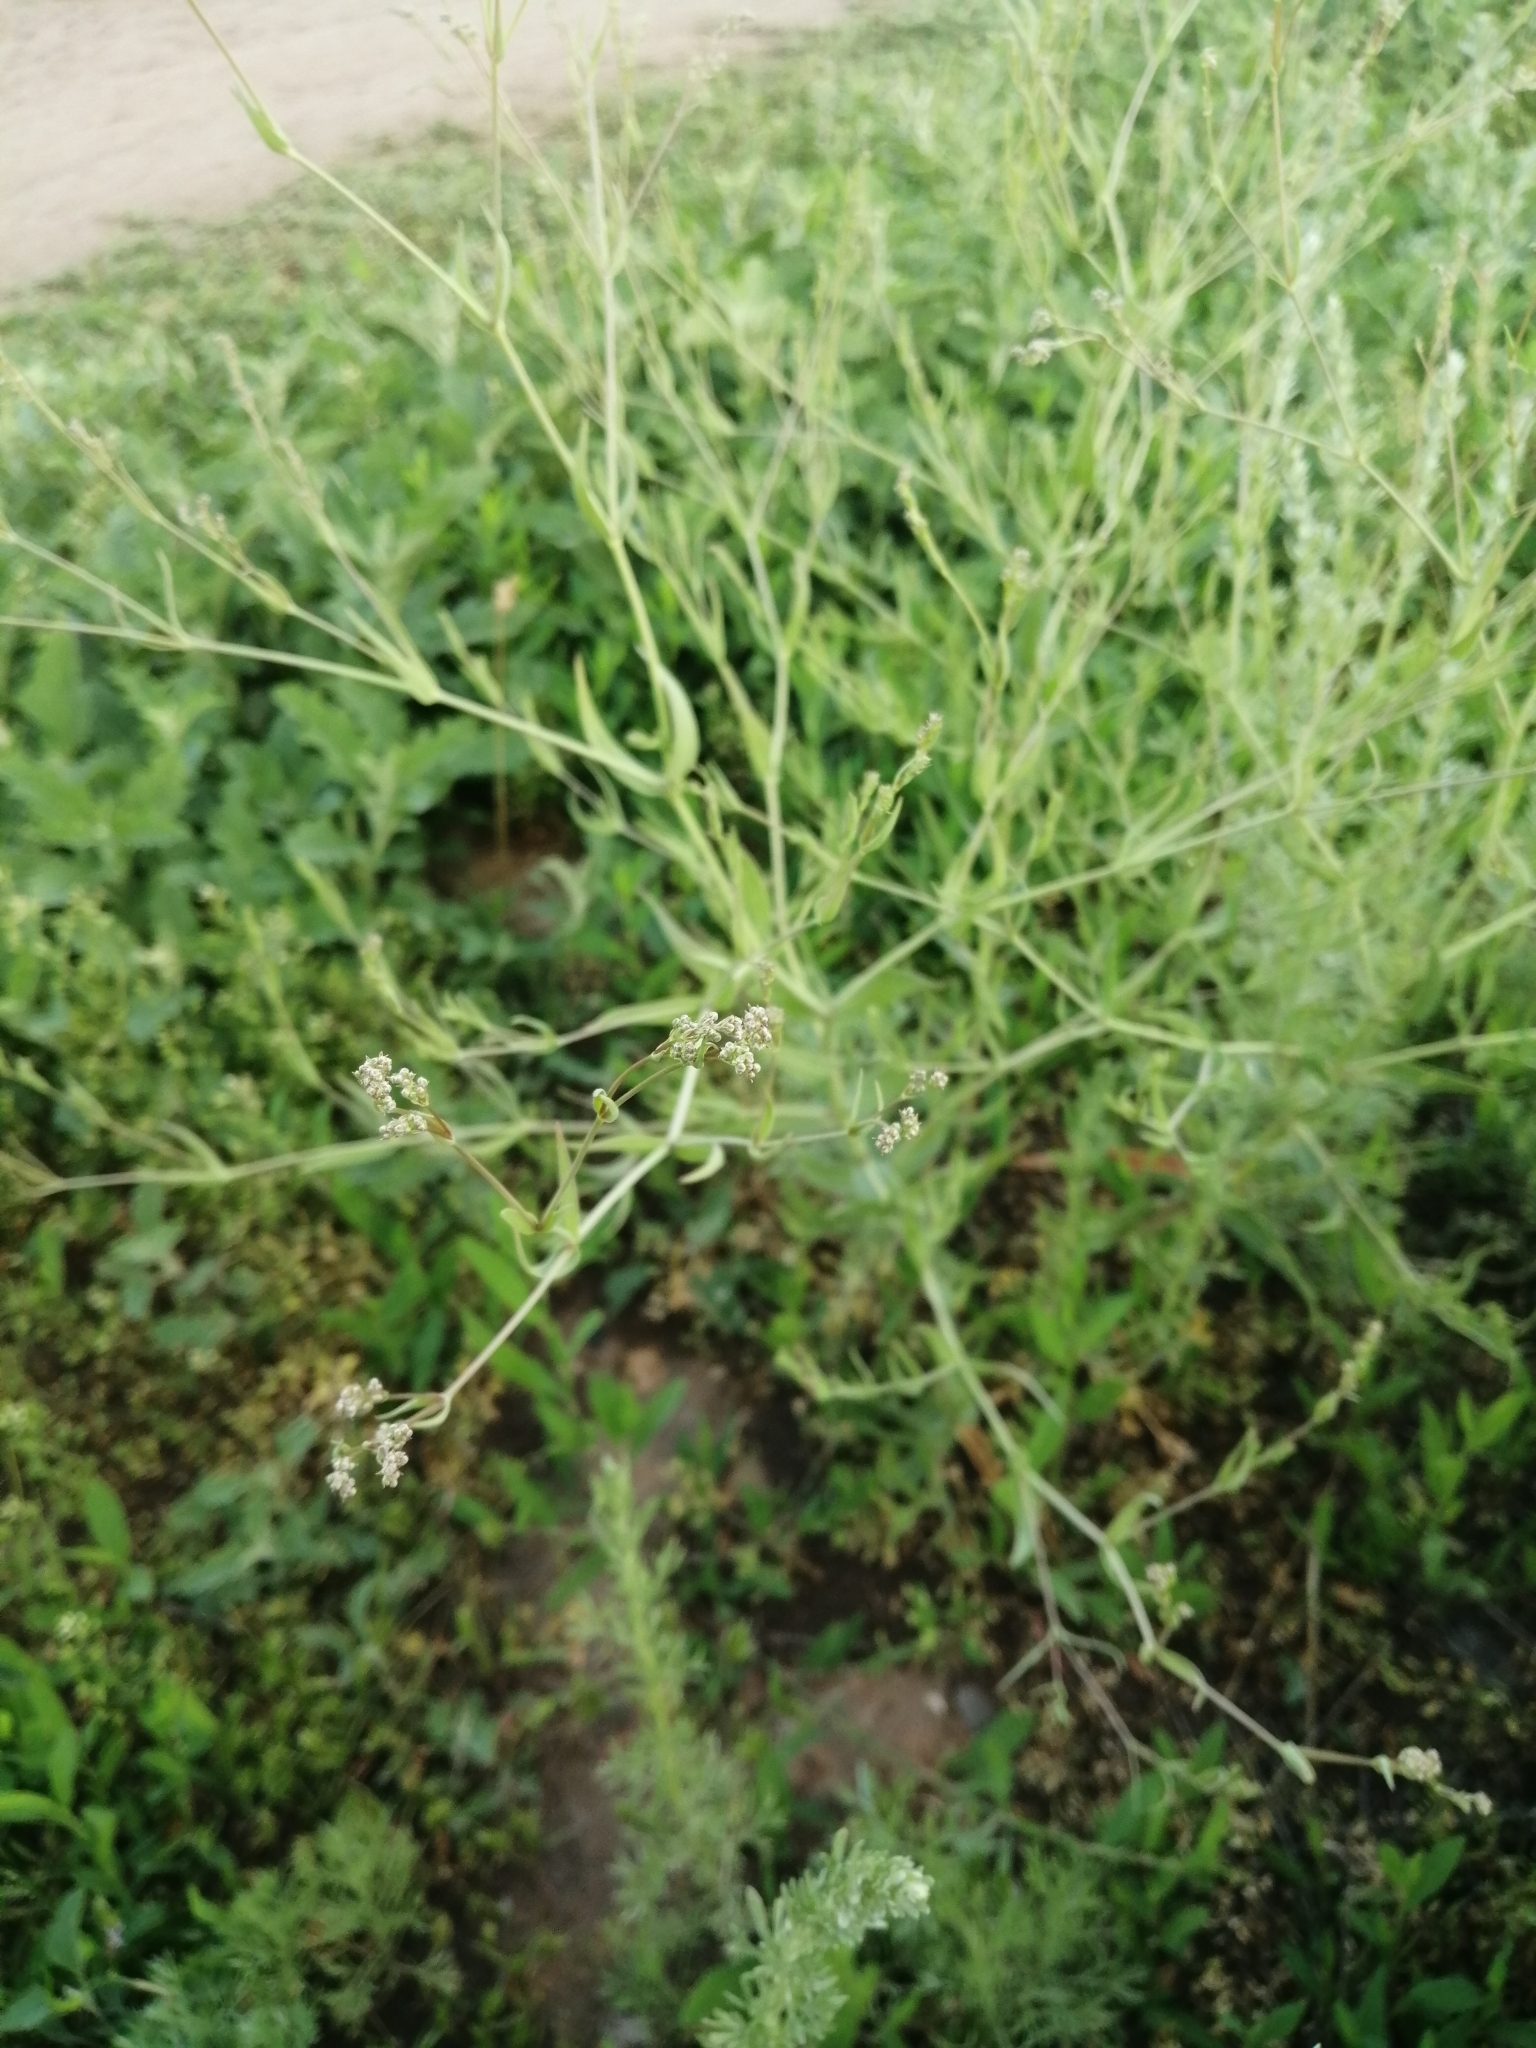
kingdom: Plantae
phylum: Tracheophyta
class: Magnoliopsida
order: Caryophyllales
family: Caryophyllaceae
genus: Gypsophila
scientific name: Gypsophila paniculata
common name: Baby's-breath
